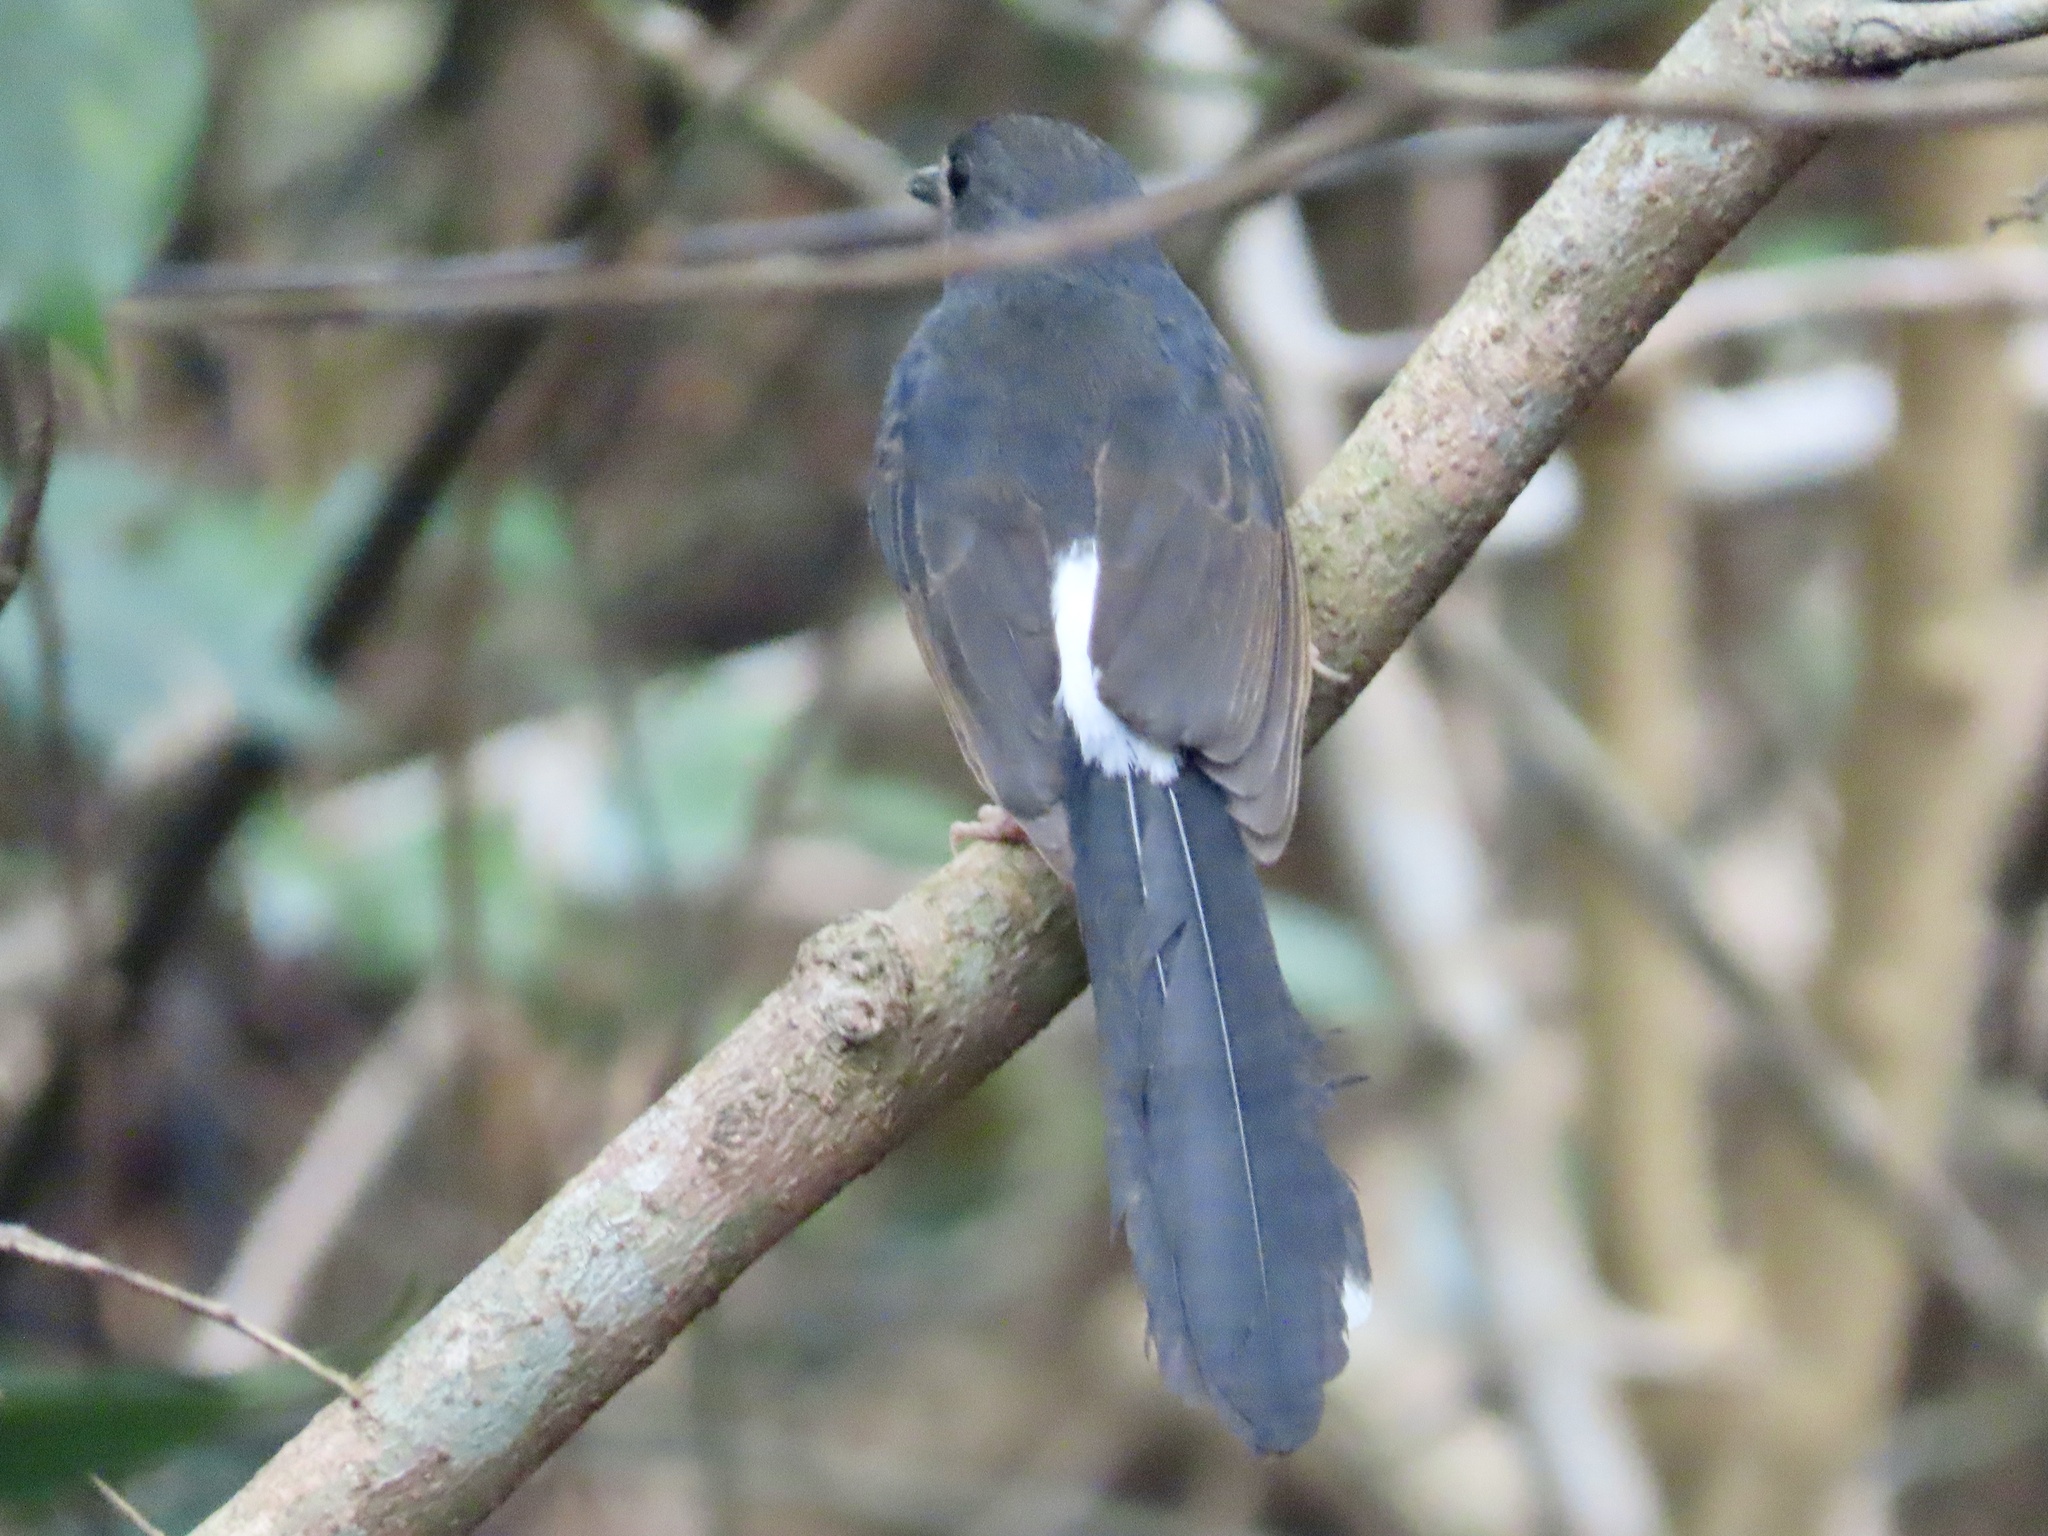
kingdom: Animalia
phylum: Chordata
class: Aves
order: Passeriformes
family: Muscicapidae
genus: Copsychus
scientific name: Copsychus malabaricus
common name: White-rumped shama
